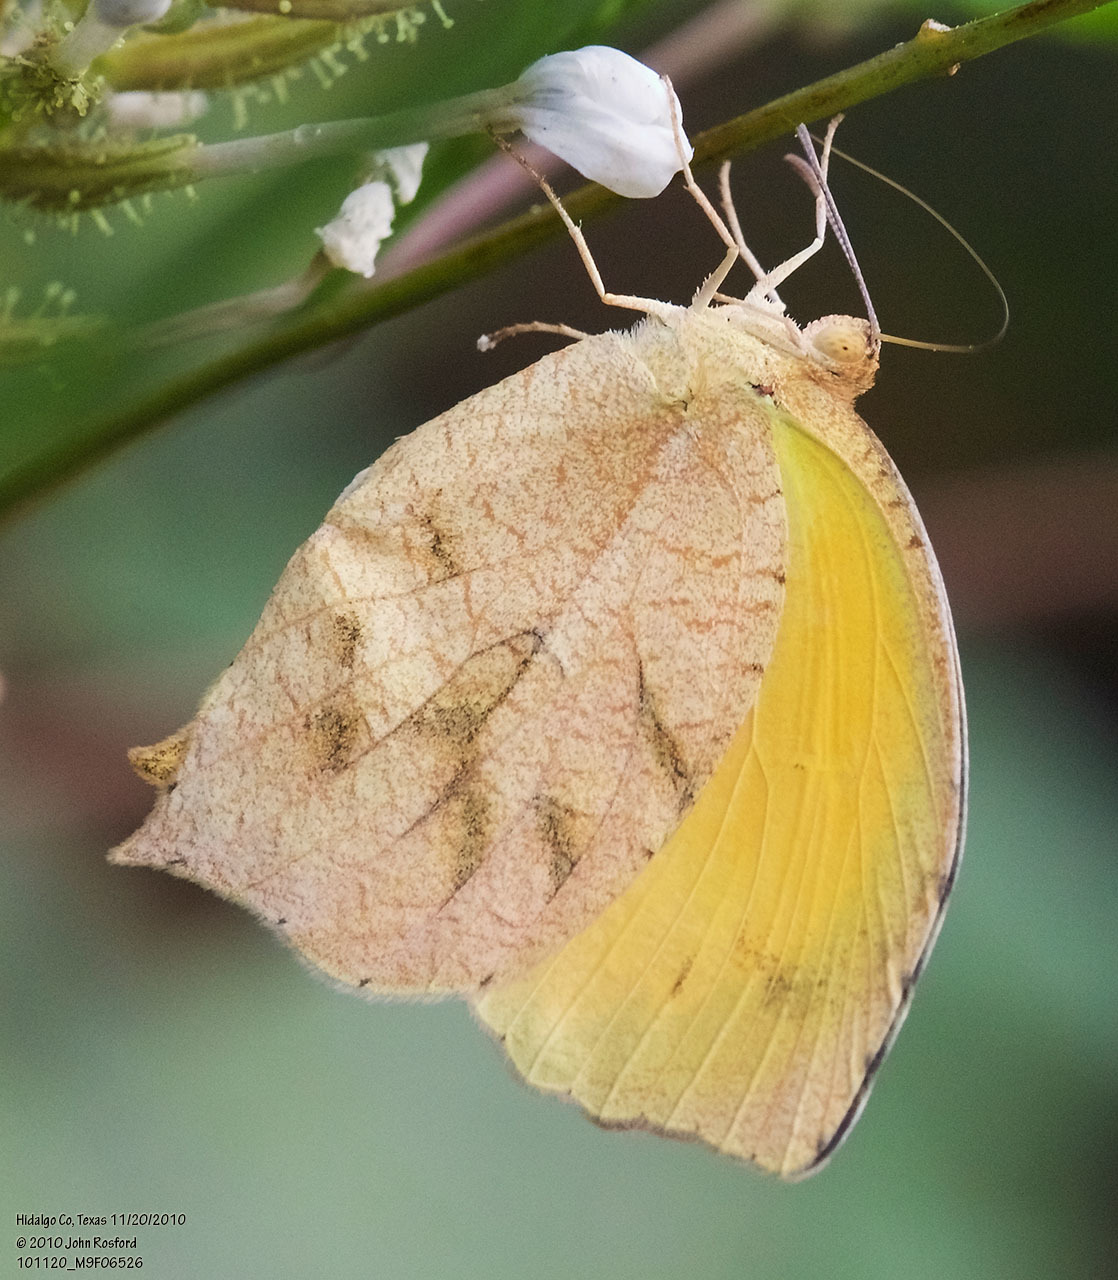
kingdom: Animalia
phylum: Arthropoda
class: Insecta
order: Lepidoptera
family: Pieridae
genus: Pyrisitia
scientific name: Pyrisitia proterpia
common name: Tailed orange
